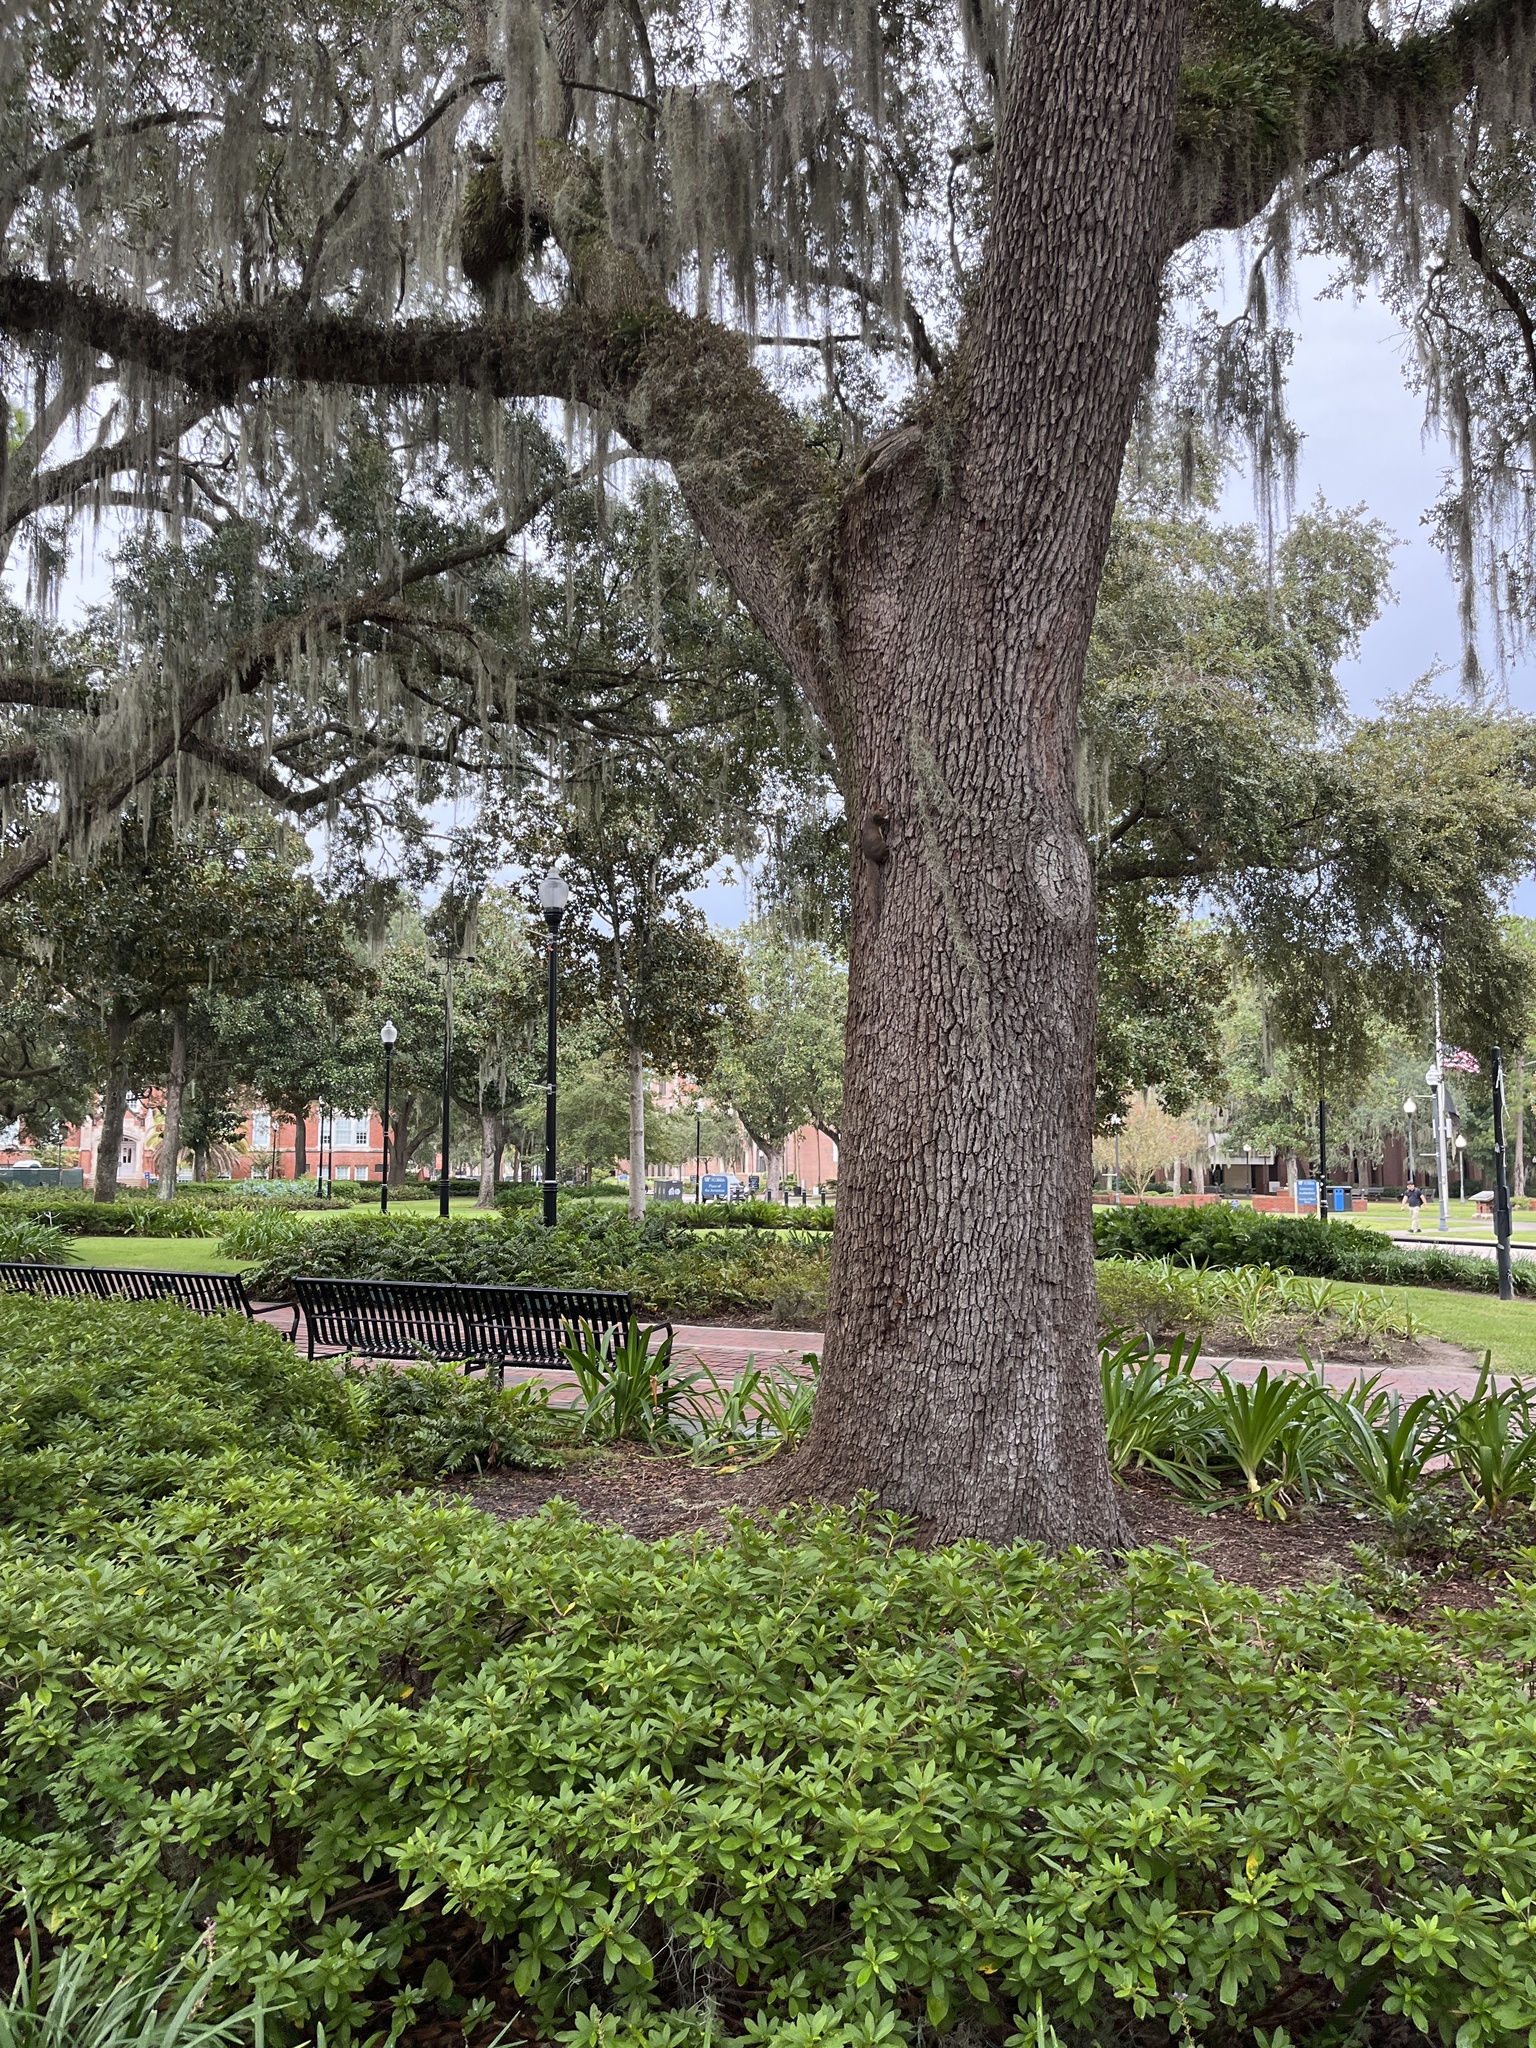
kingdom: Animalia
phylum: Chordata
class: Mammalia
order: Rodentia
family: Sciuridae
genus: Sciurus
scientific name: Sciurus carolinensis
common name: Eastern gray squirrel
